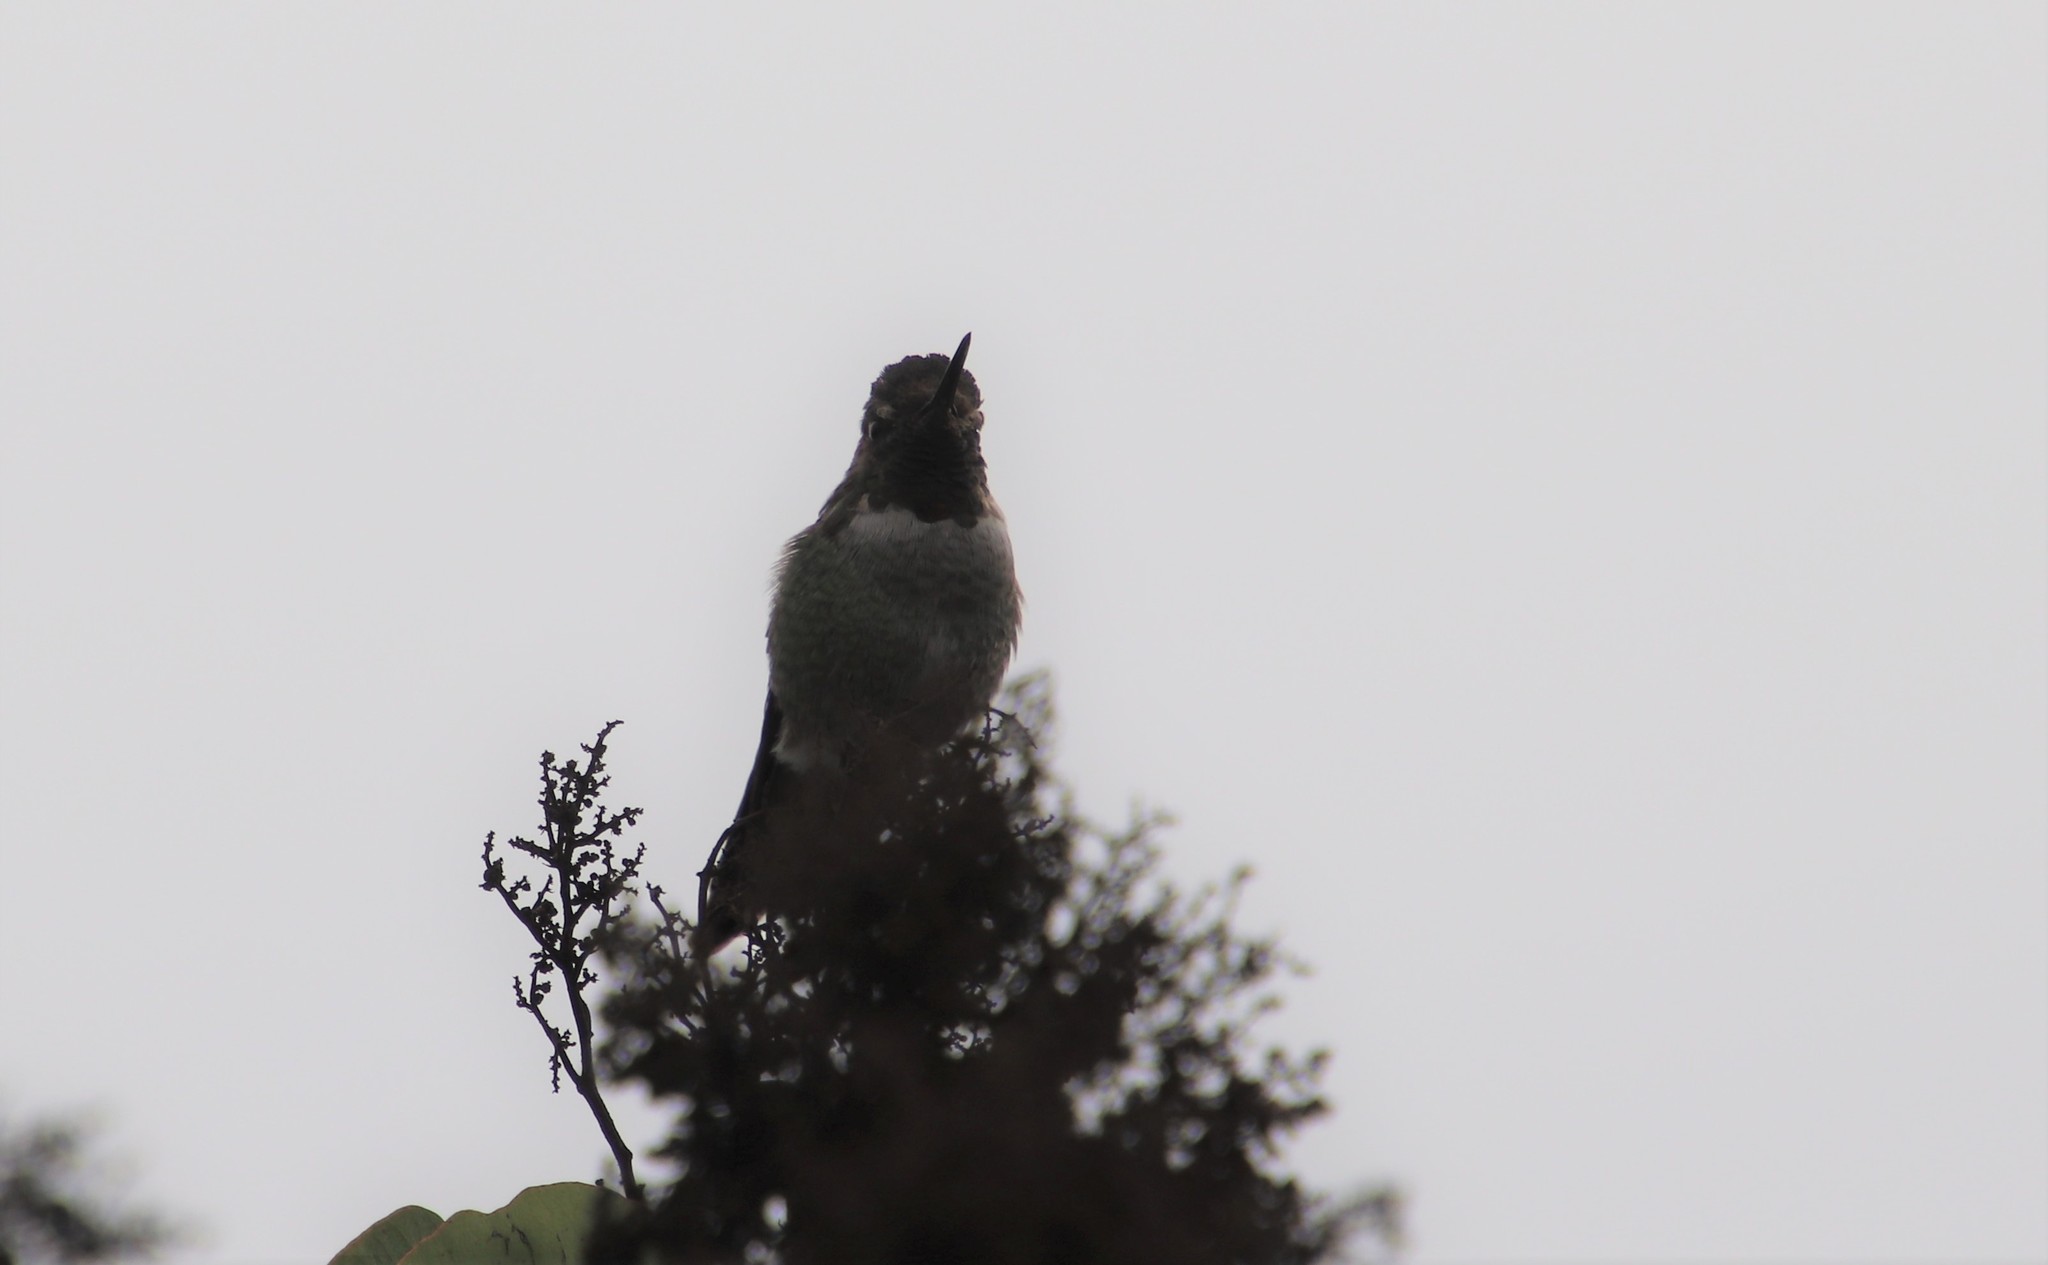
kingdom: Animalia
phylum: Chordata
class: Aves
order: Apodiformes
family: Trochilidae
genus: Calypte
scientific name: Calypte anna
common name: Anna's hummingbird
